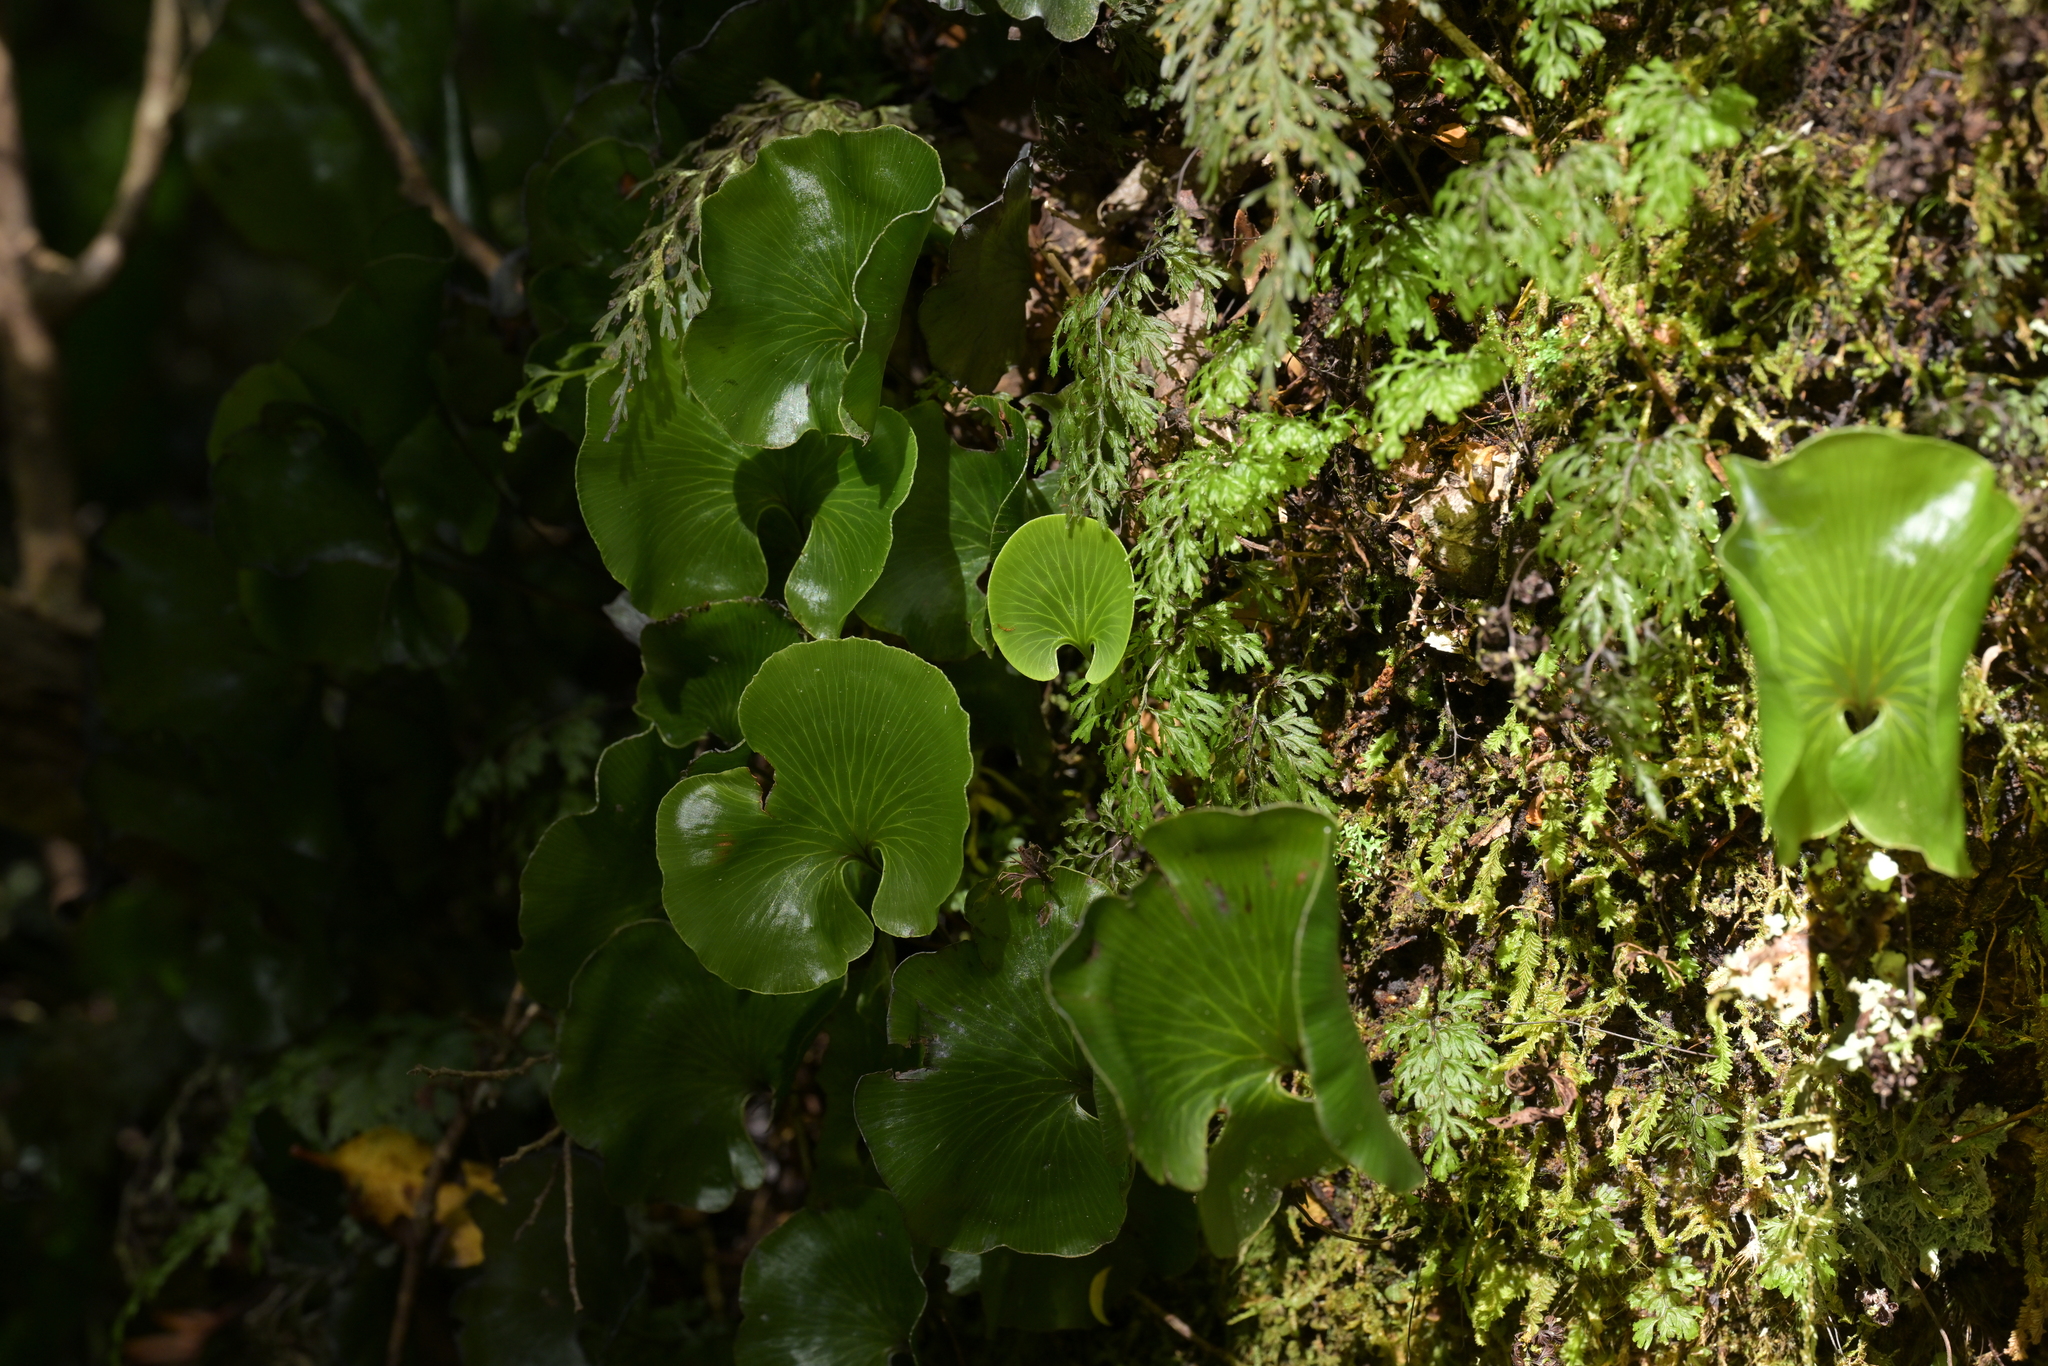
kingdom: Plantae
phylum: Tracheophyta
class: Polypodiopsida
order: Hymenophyllales
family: Hymenophyllaceae
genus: Hymenophyllum
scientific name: Hymenophyllum nephrophyllum
